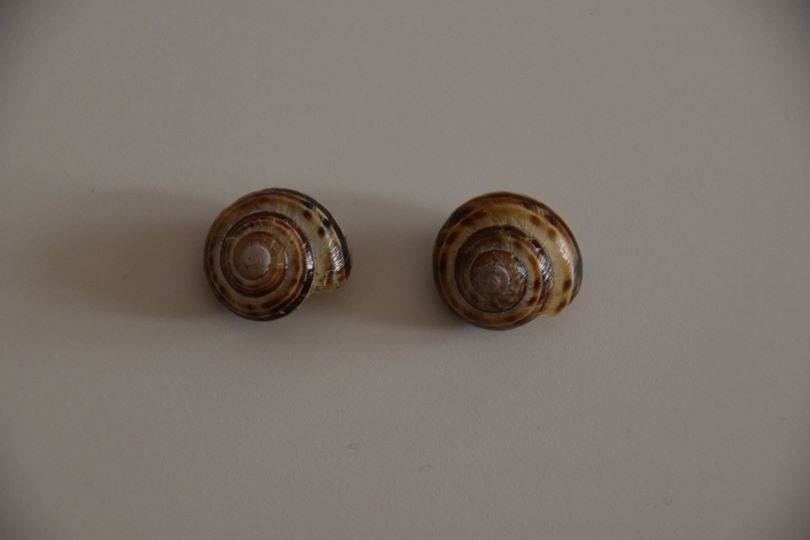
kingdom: Animalia
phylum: Mollusca
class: Gastropoda
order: Stylommatophora
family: Helicidae
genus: Macularia
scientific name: Macularia sylvatica
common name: Hélice sylvatique
